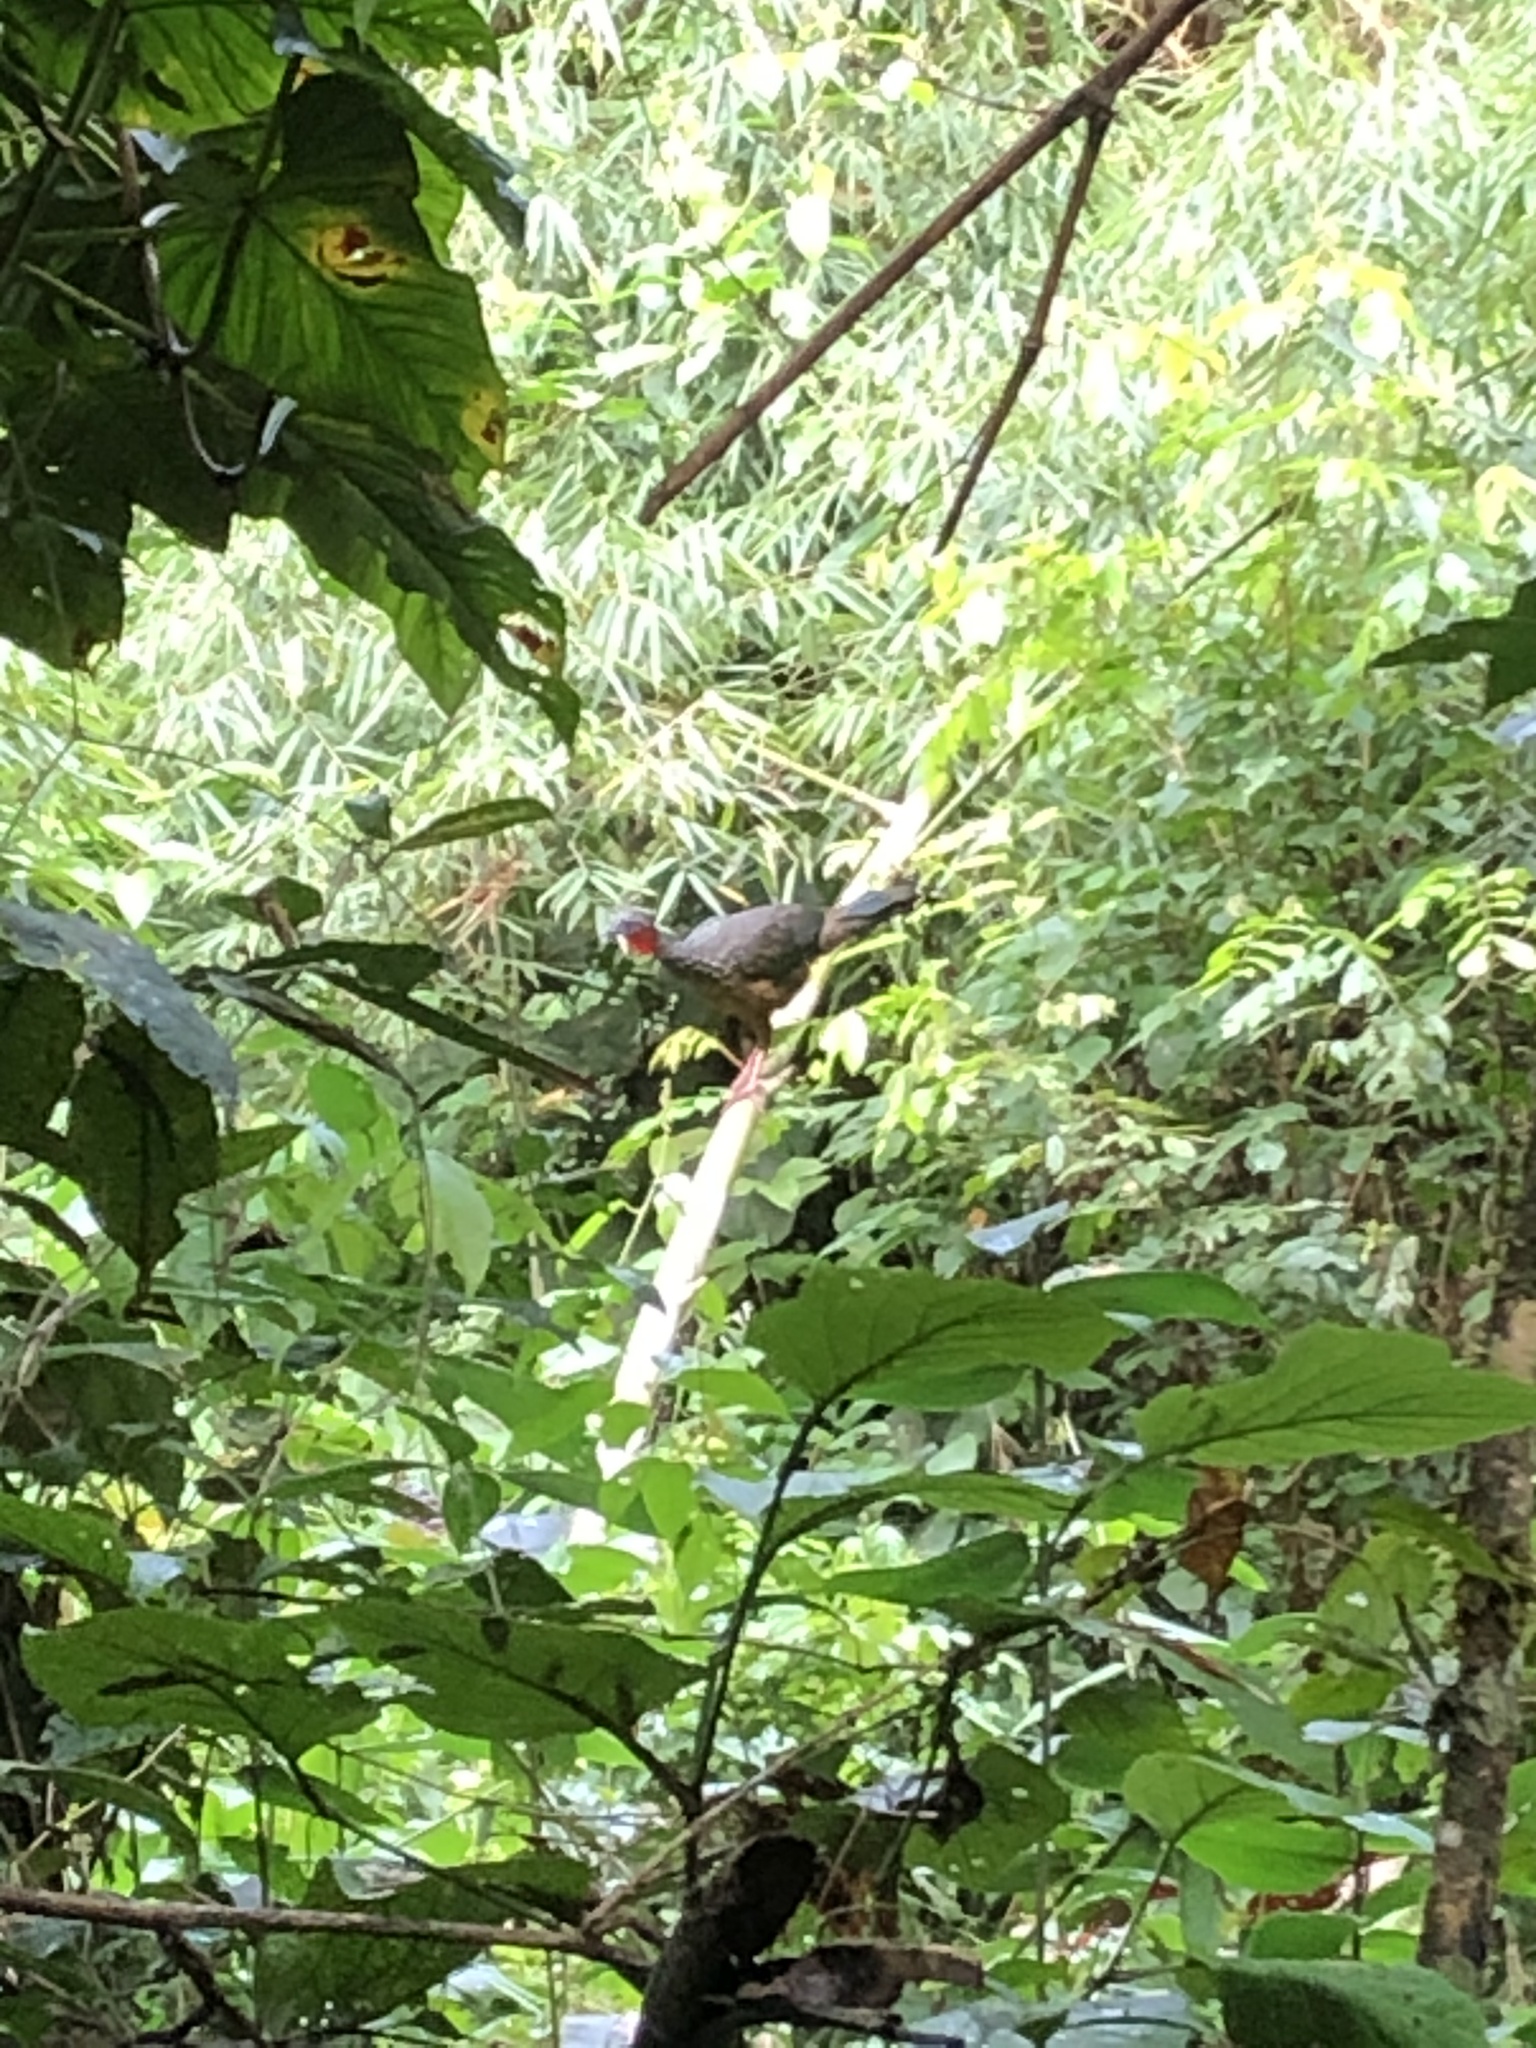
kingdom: Animalia
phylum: Chordata
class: Aves
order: Galliformes
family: Cracidae
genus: Penelope
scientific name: Penelope jacquacu
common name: Spix's guan
